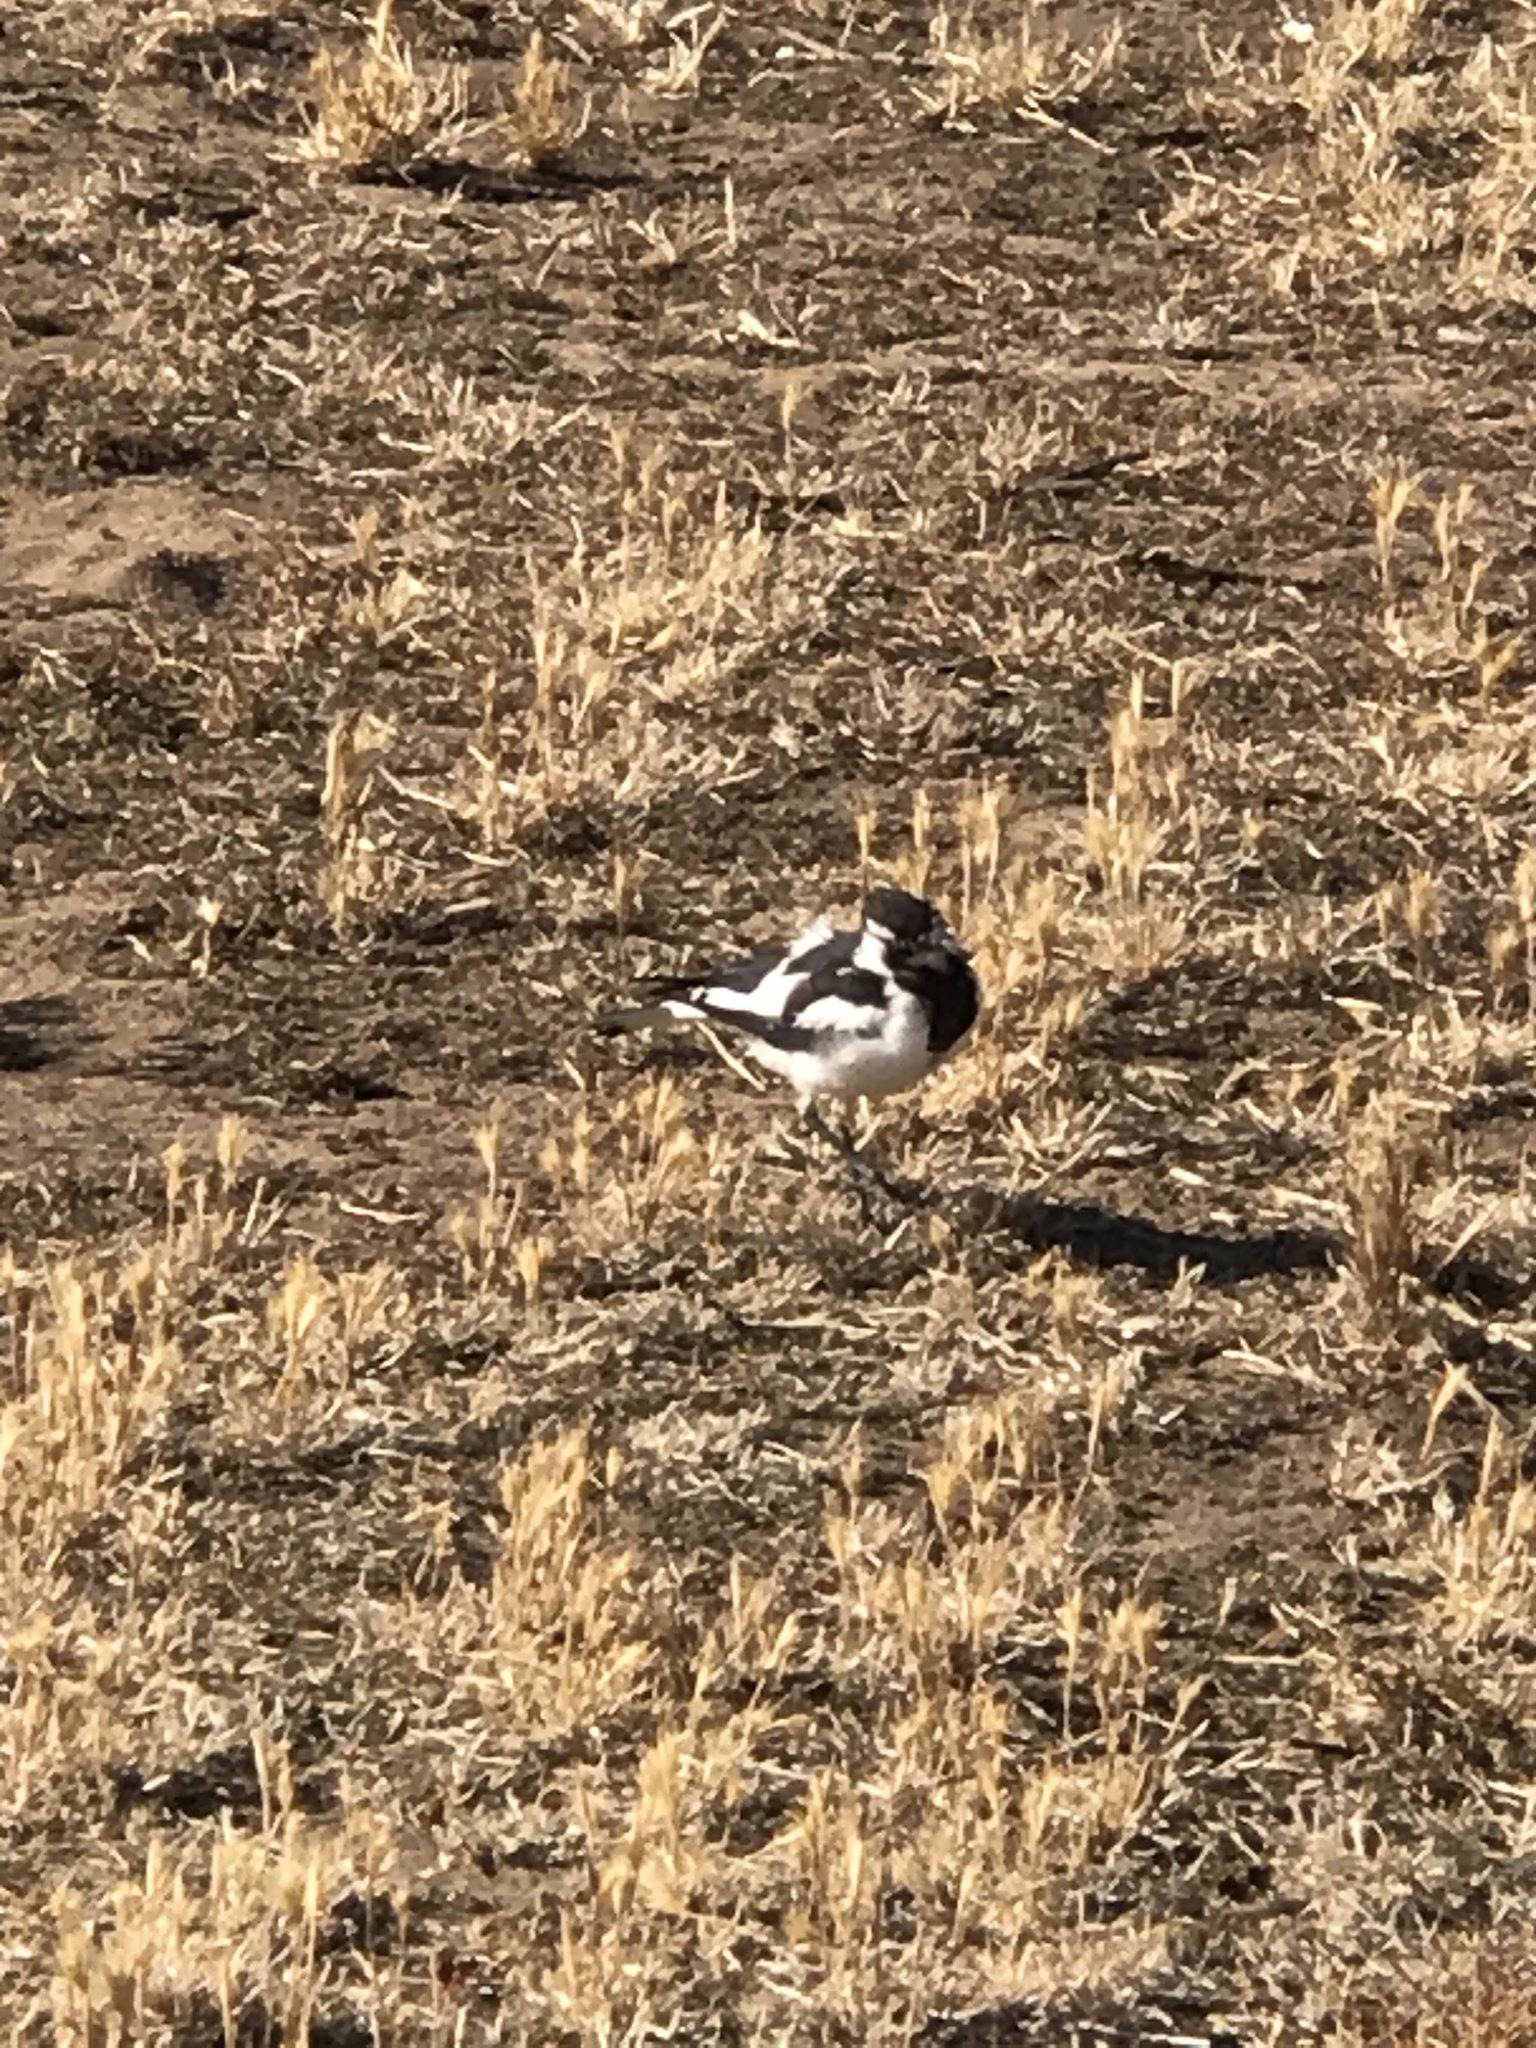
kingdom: Animalia
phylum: Chordata
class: Aves
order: Passeriformes
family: Monarchidae
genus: Grallina
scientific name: Grallina cyanoleuca
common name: Magpie-lark
